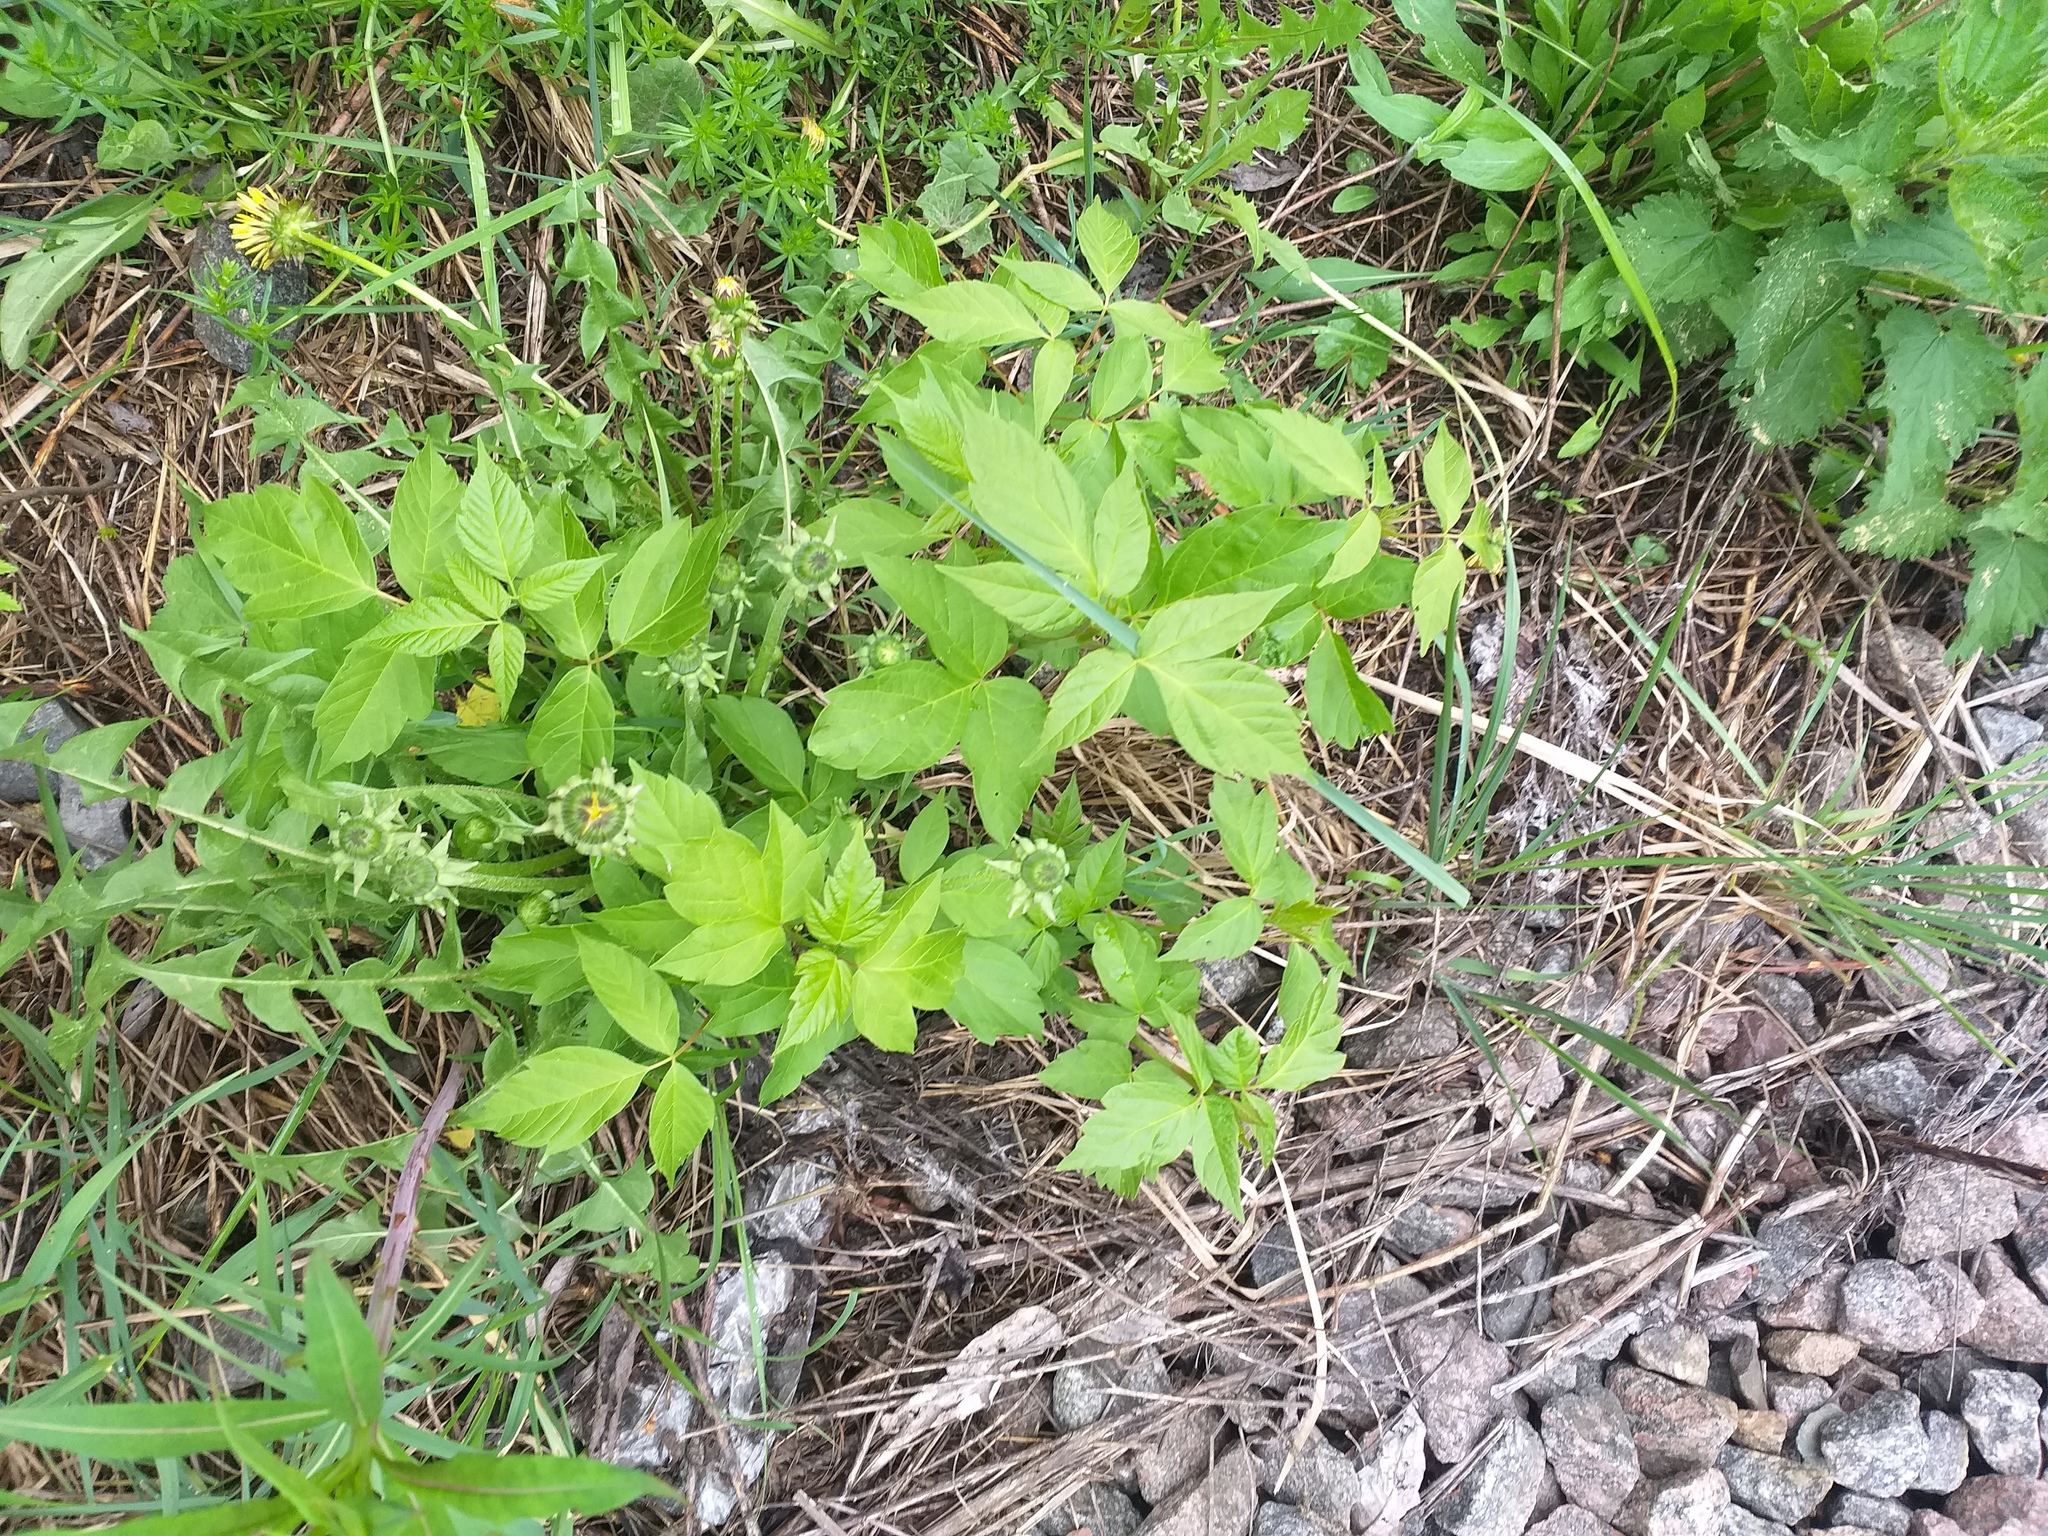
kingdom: Plantae
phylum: Tracheophyta
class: Magnoliopsida
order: Sapindales
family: Sapindaceae
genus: Acer
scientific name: Acer negundo
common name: Ashleaf maple
